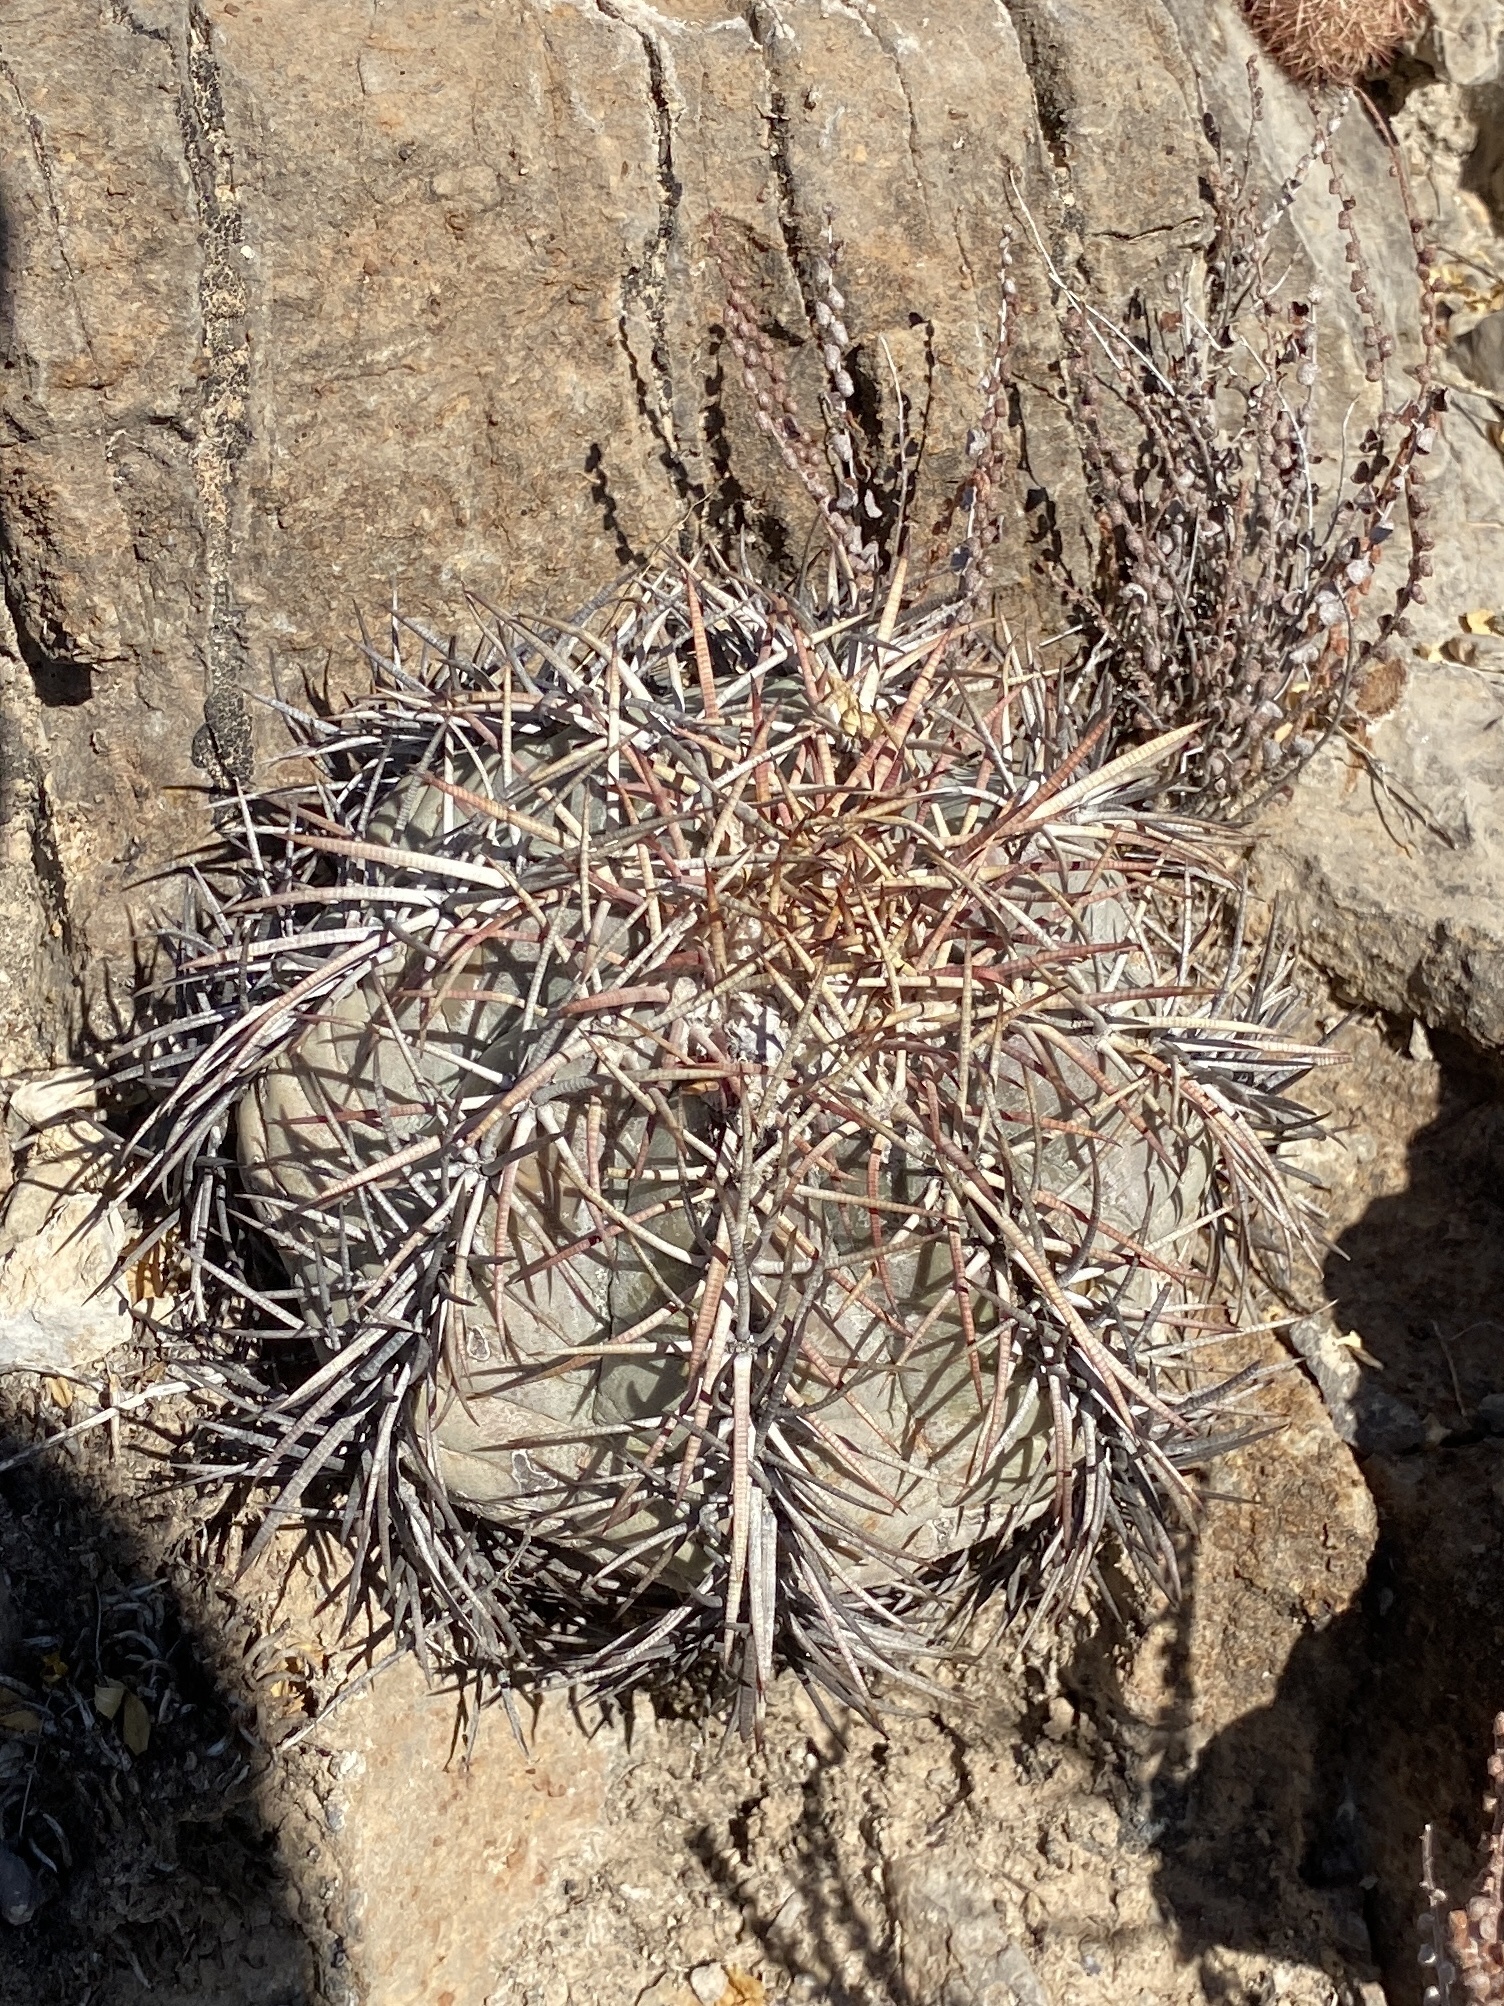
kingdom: Plantae
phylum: Tracheophyta
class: Magnoliopsida
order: Caryophyllales
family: Cactaceae
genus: Echinocactus
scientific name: Echinocactus horizonthalonius
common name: Devilshead
